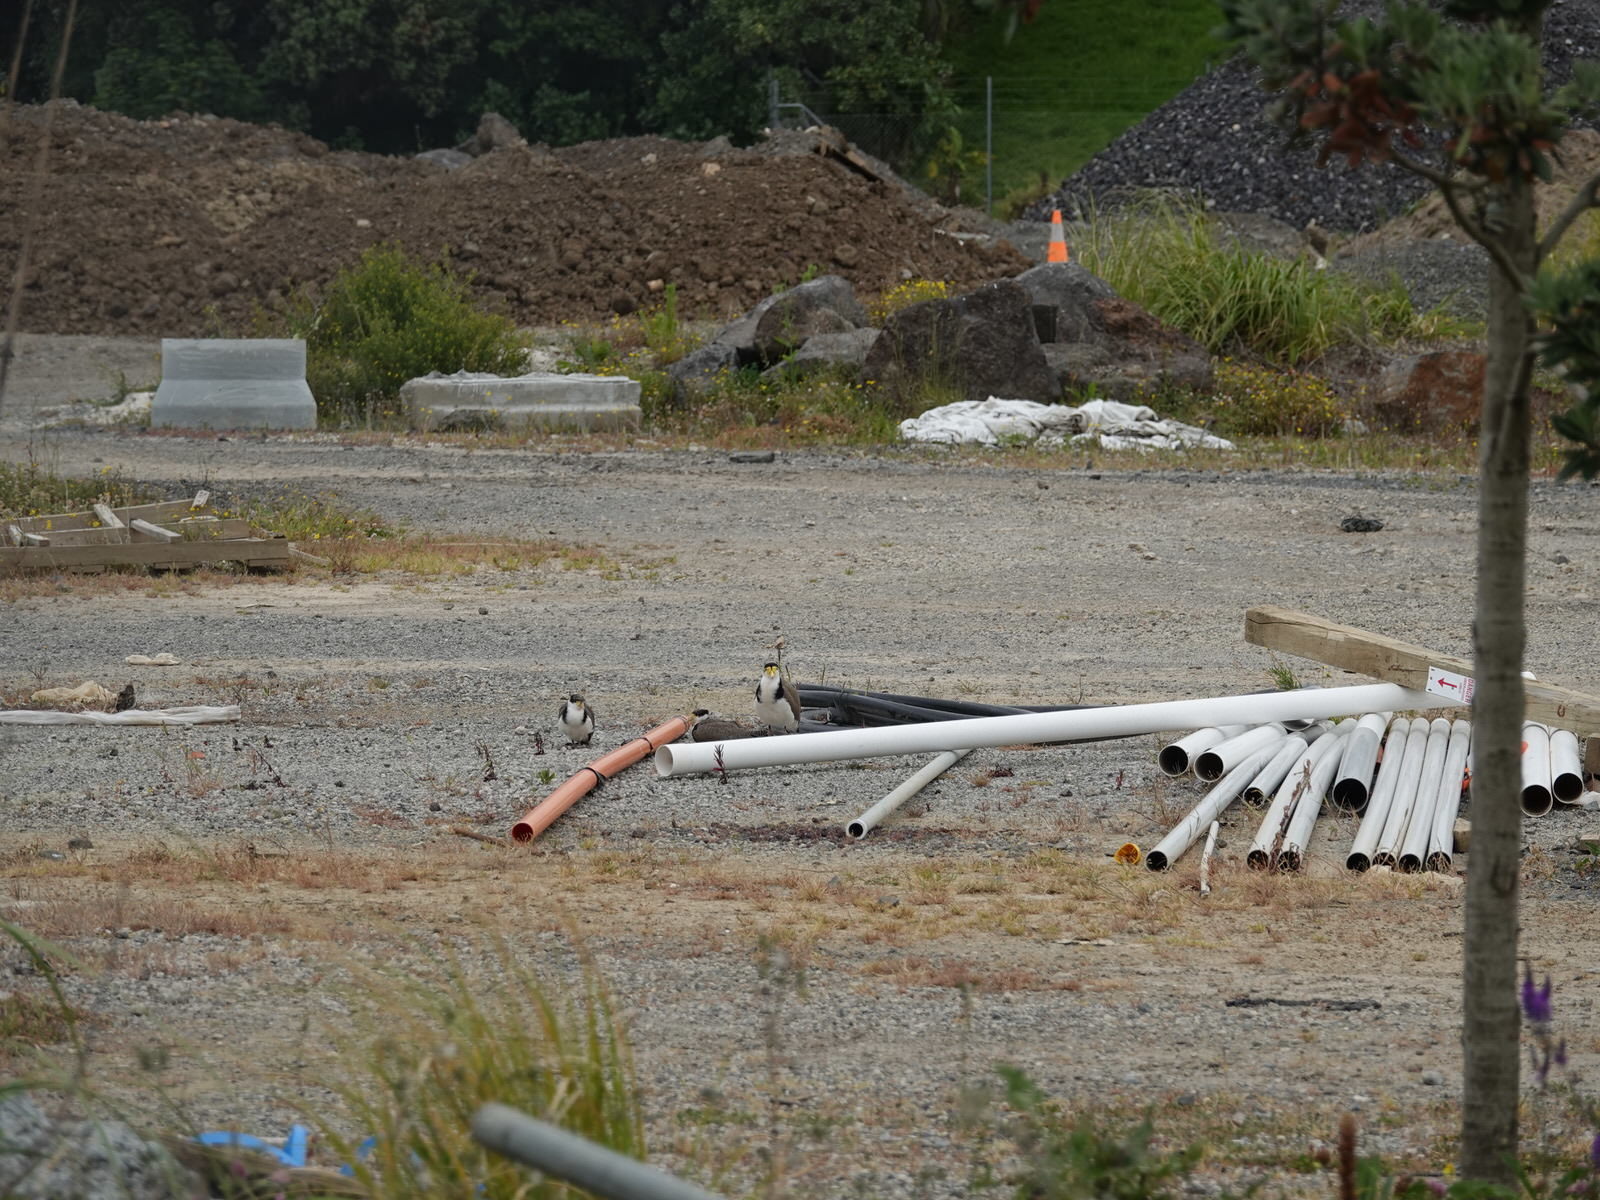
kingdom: Animalia
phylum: Chordata
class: Aves
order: Charadriiformes
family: Charadriidae
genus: Vanellus
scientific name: Vanellus miles
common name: Masked lapwing
